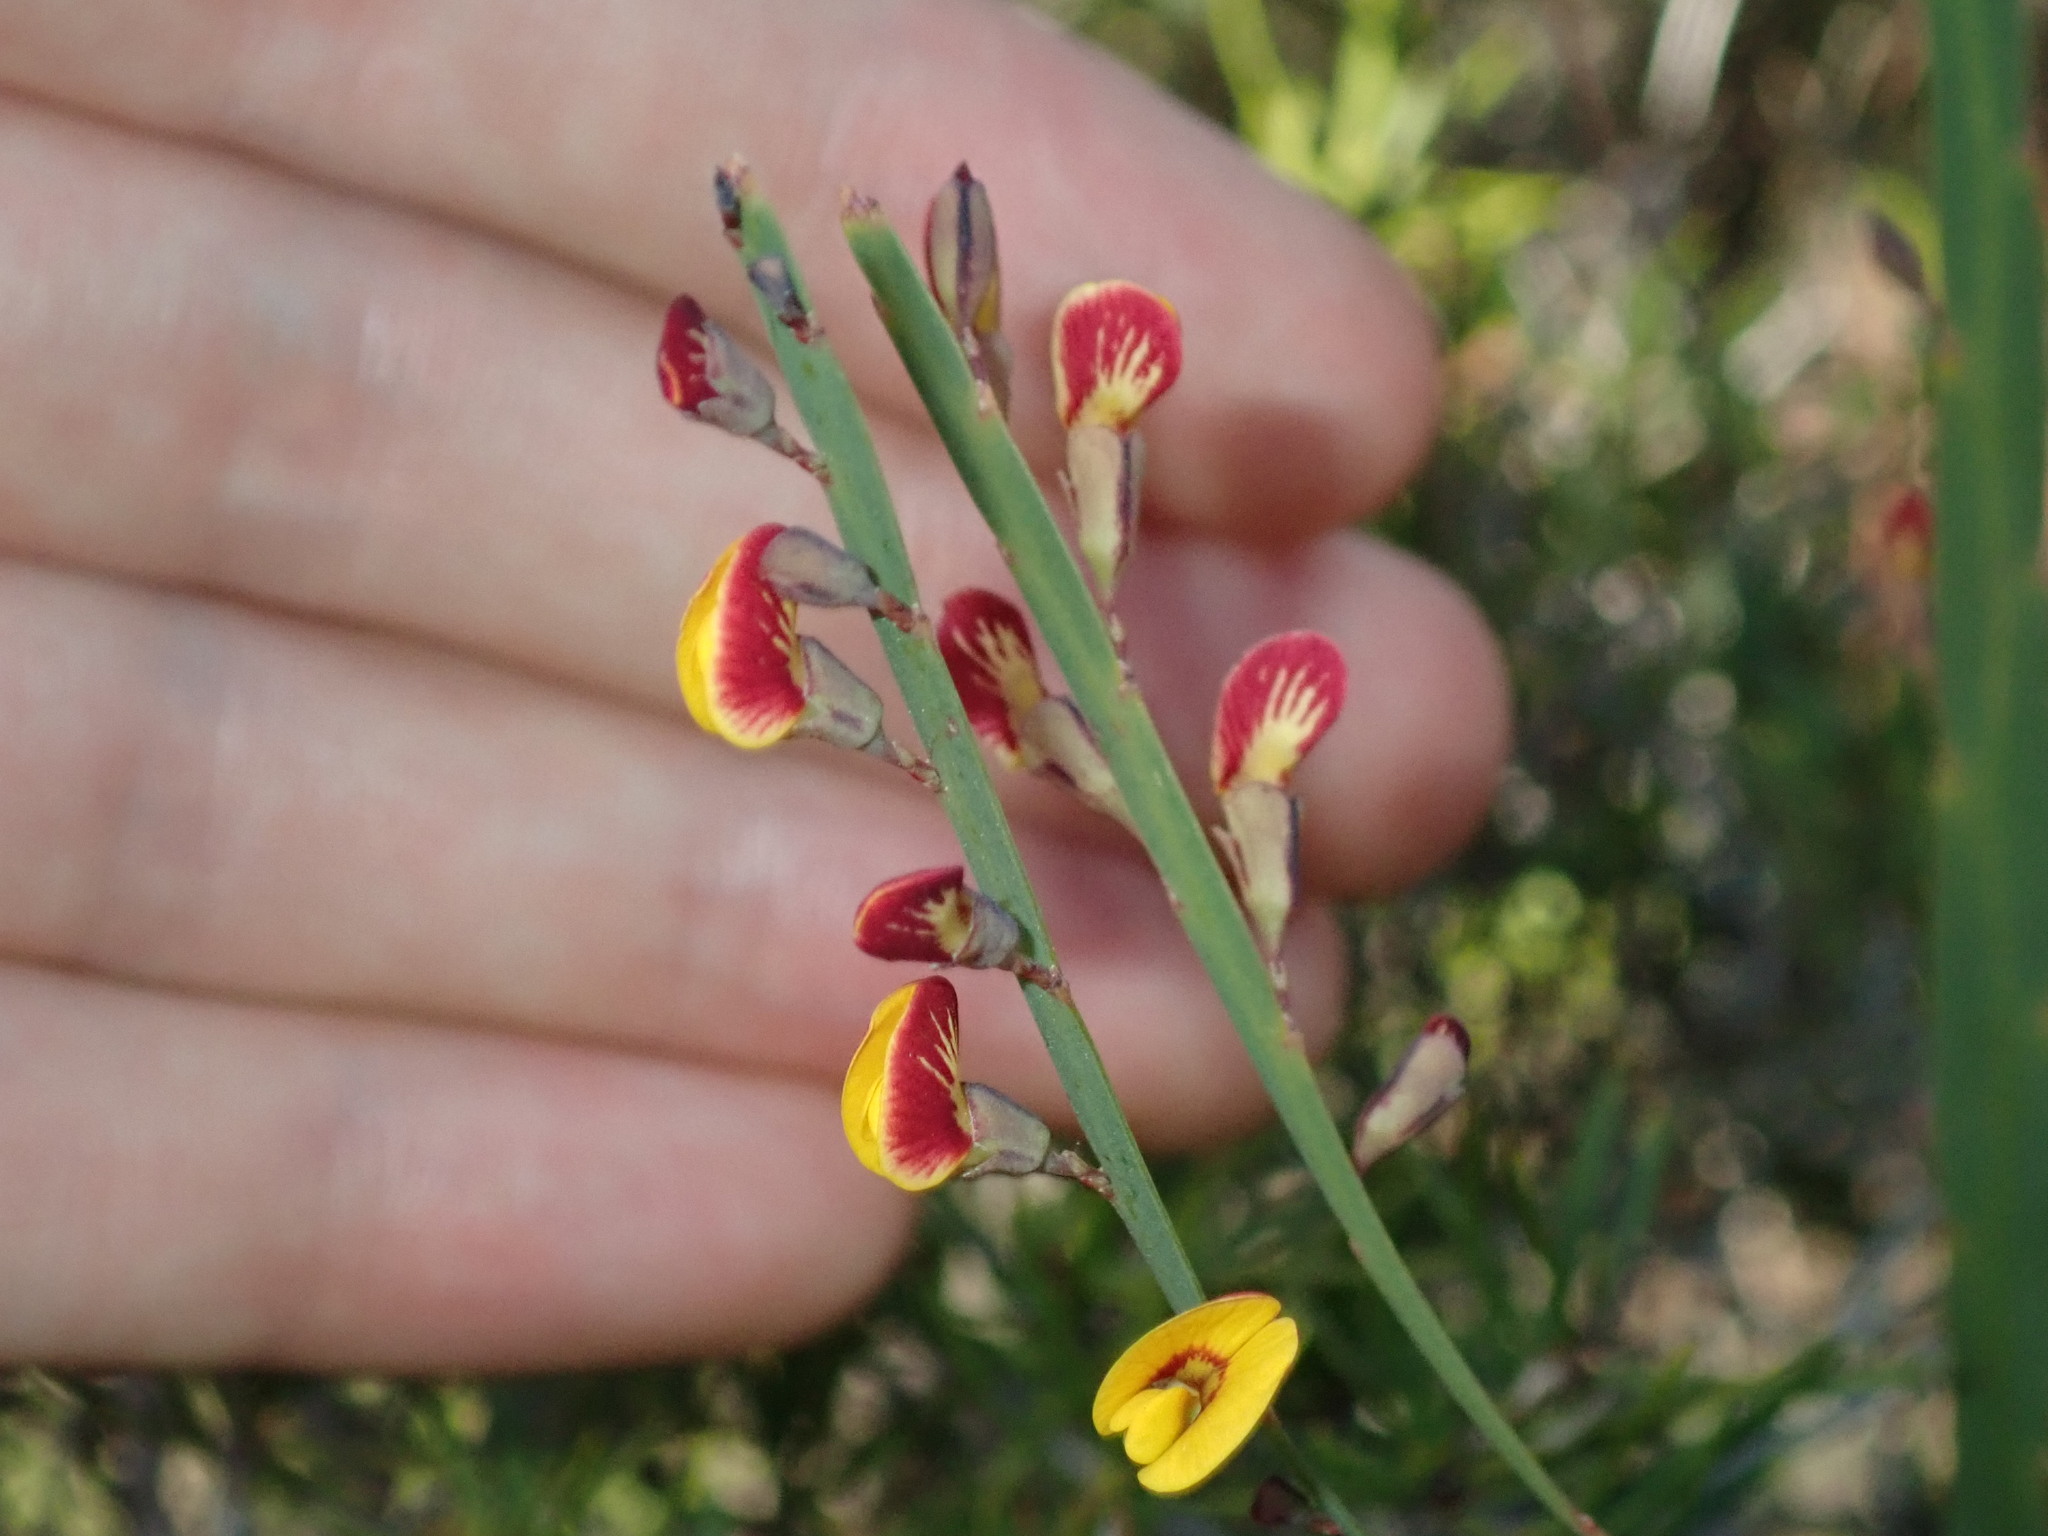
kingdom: Plantae
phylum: Tracheophyta
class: Magnoliopsida
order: Fabales
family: Fabaceae
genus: Bossiaea
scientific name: Bossiaea ensata
